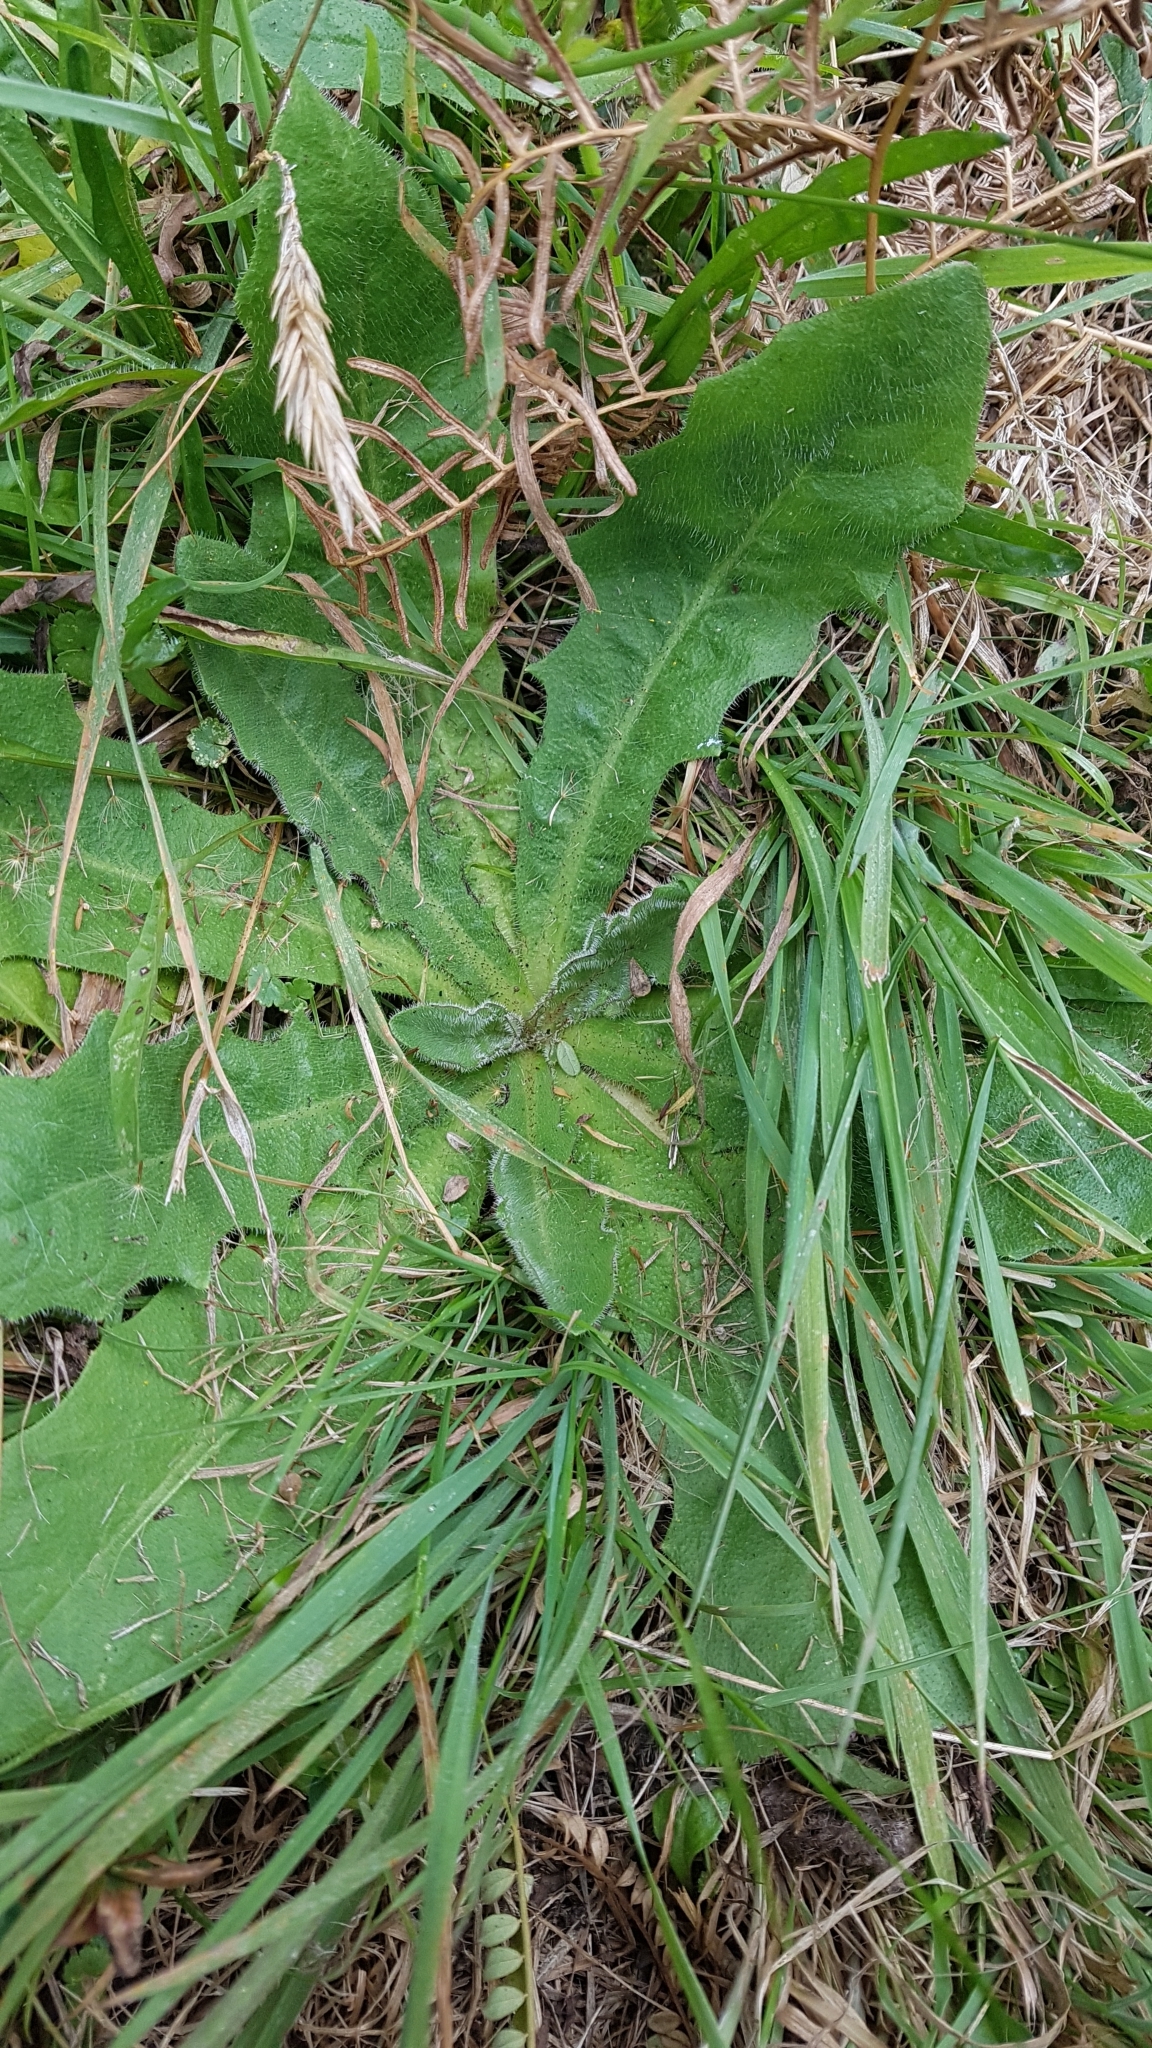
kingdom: Plantae
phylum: Tracheophyta
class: Magnoliopsida
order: Asterales
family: Asteraceae
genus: Hypochaeris
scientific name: Hypochaeris radicata
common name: Flatweed
